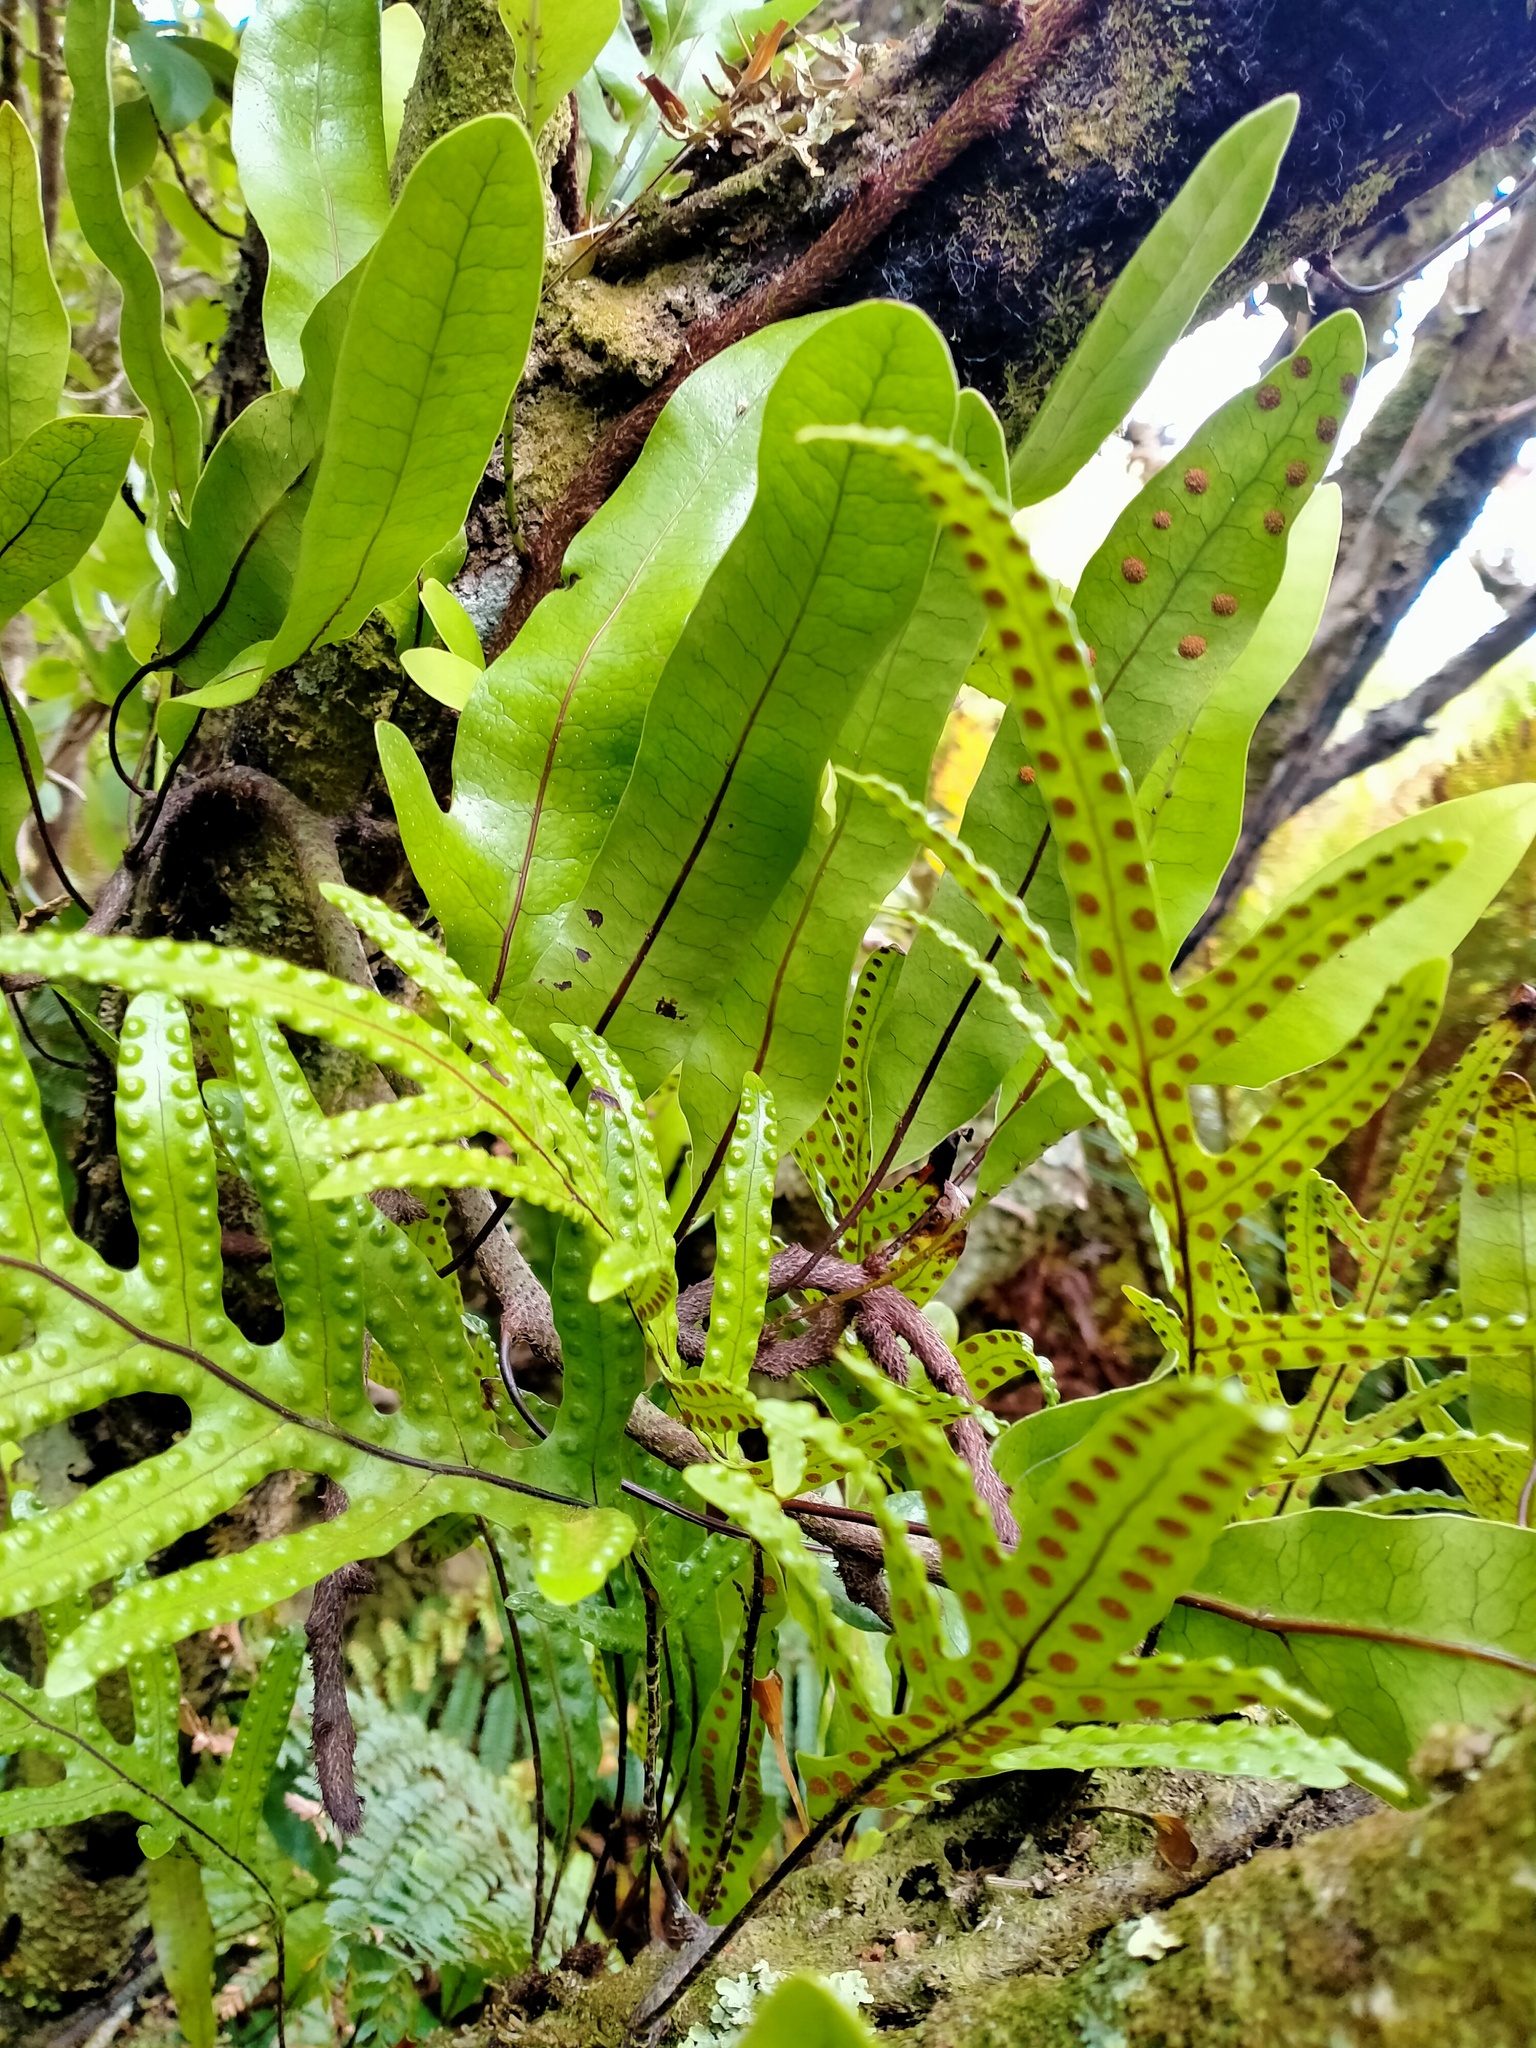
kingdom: Plantae
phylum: Tracheophyta
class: Polypodiopsida
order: Polypodiales
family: Polypodiaceae
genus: Lecanopteris
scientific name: Lecanopteris pustulata
